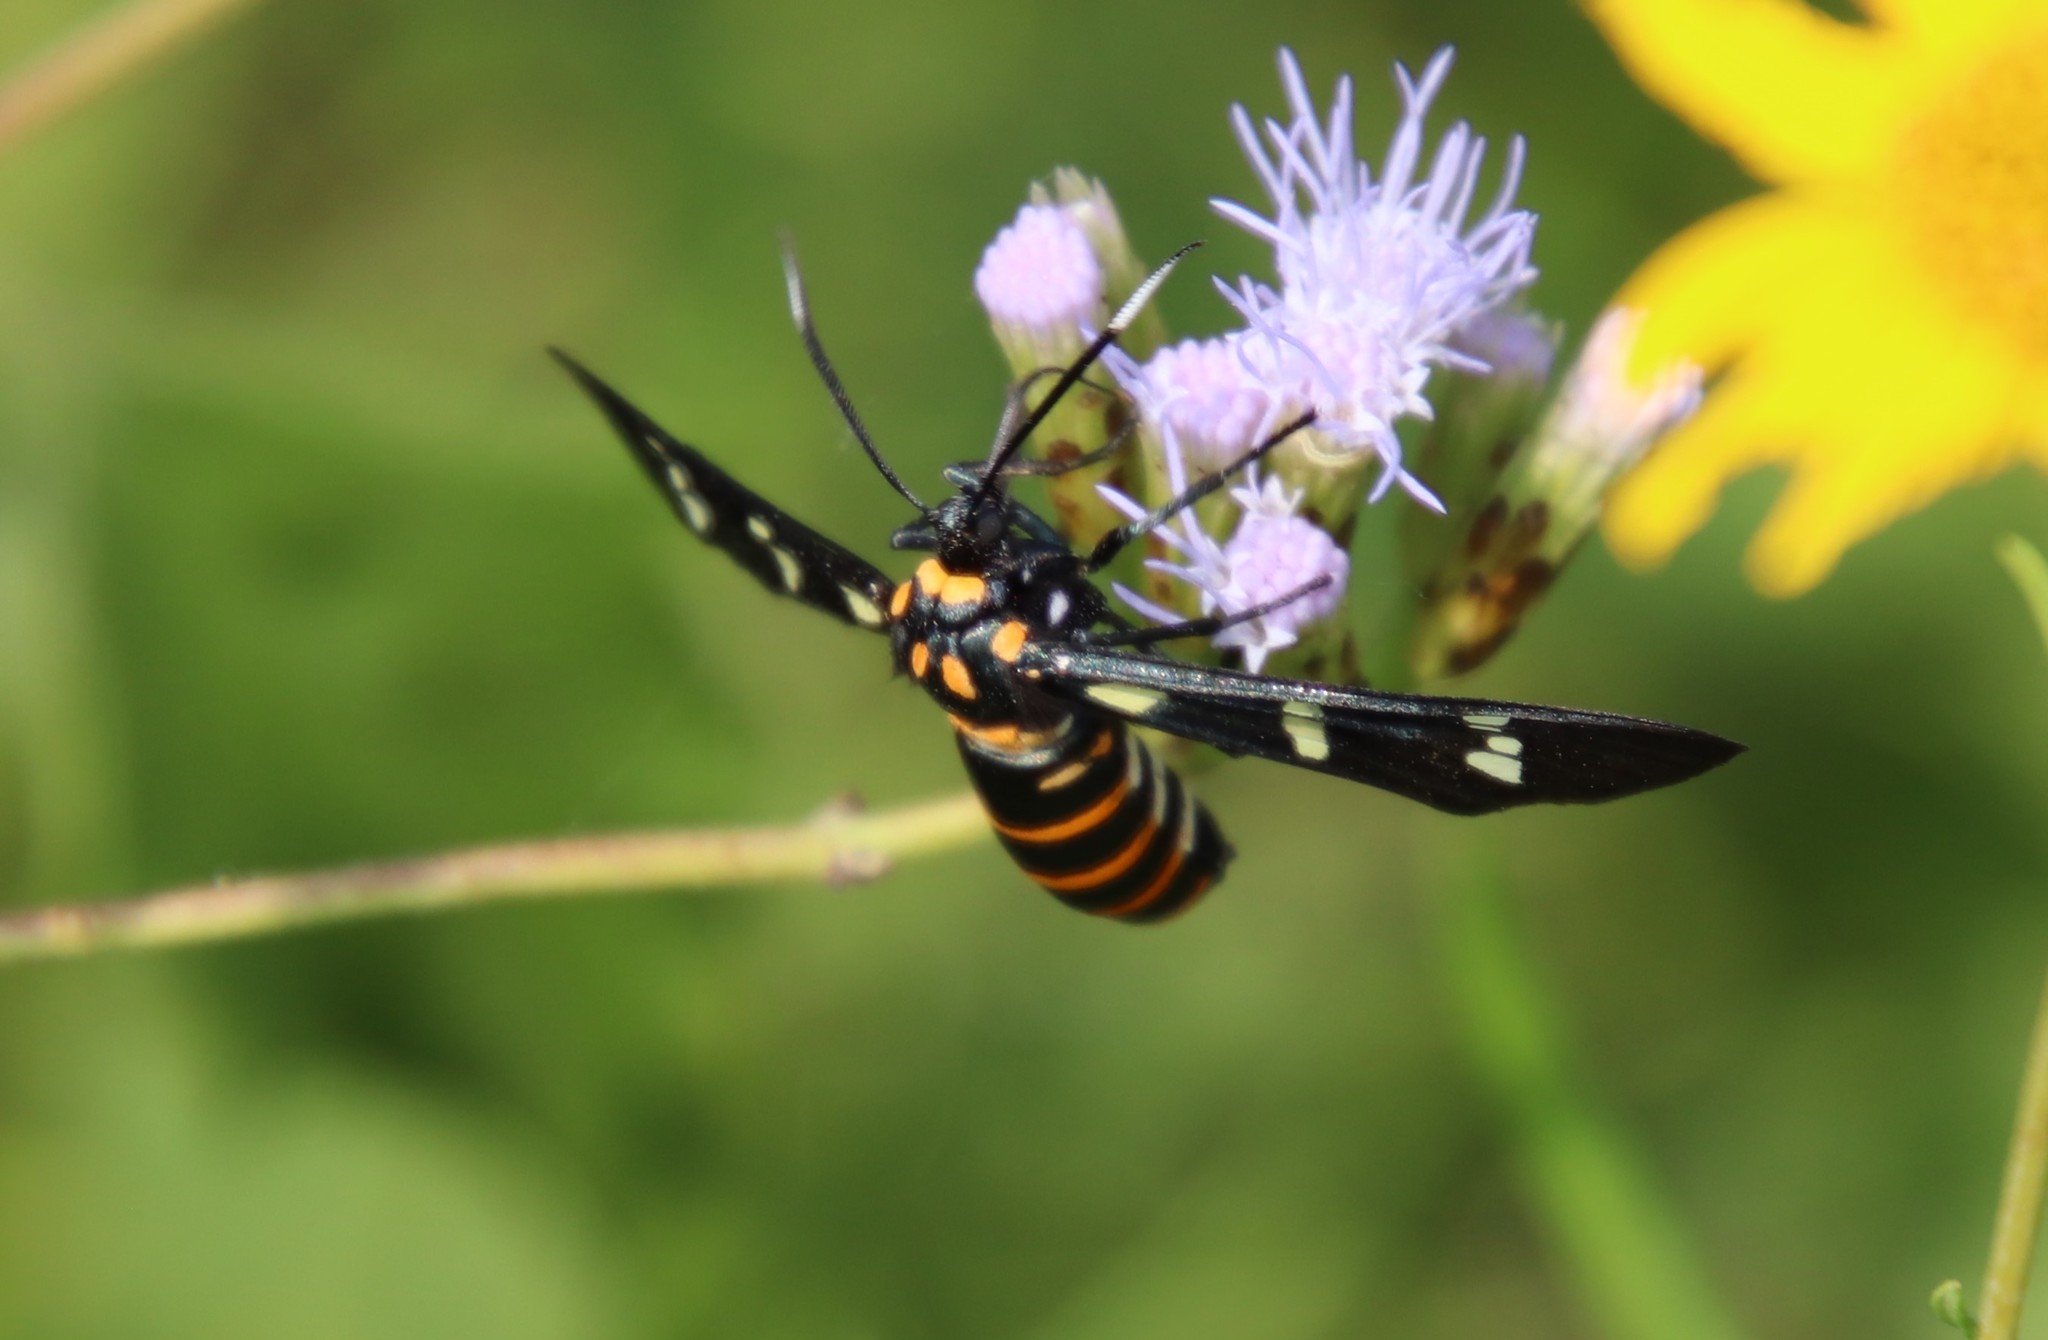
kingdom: Animalia
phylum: Arthropoda
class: Insecta
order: Lepidoptera
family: Erebidae
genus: Syntomeida
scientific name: Syntomeida melanthus
